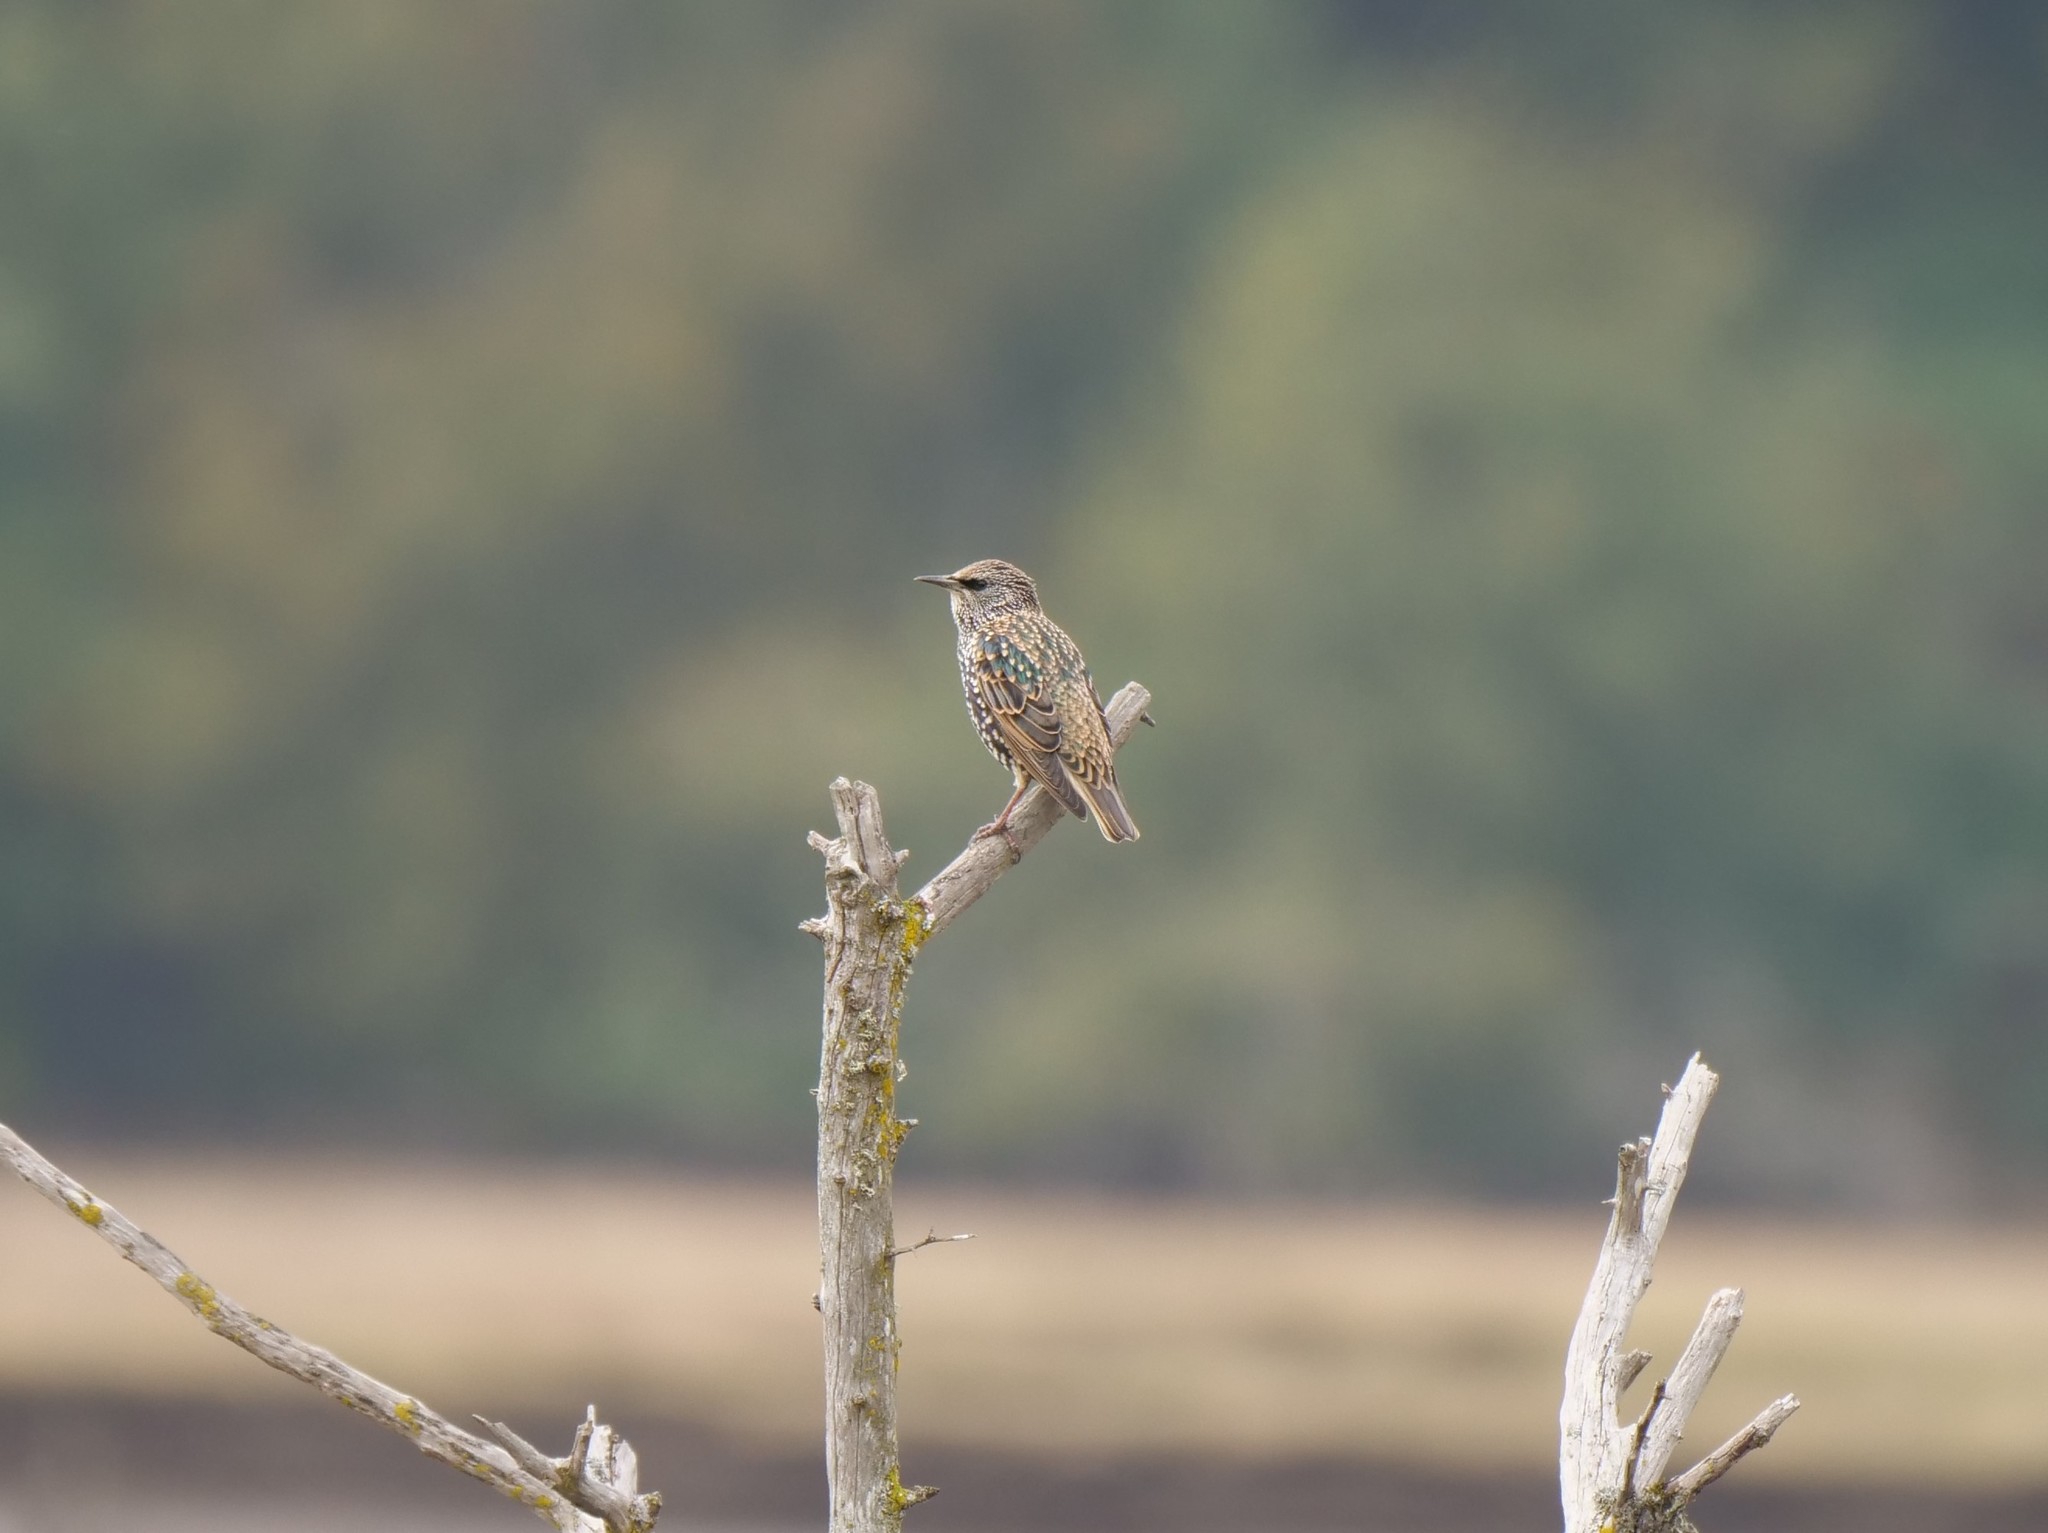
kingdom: Animalia
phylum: Chordata
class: Aves
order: Passeriformes
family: Sturnidae
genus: Sturnus
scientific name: Sturnus vulgaris
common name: Common starling
